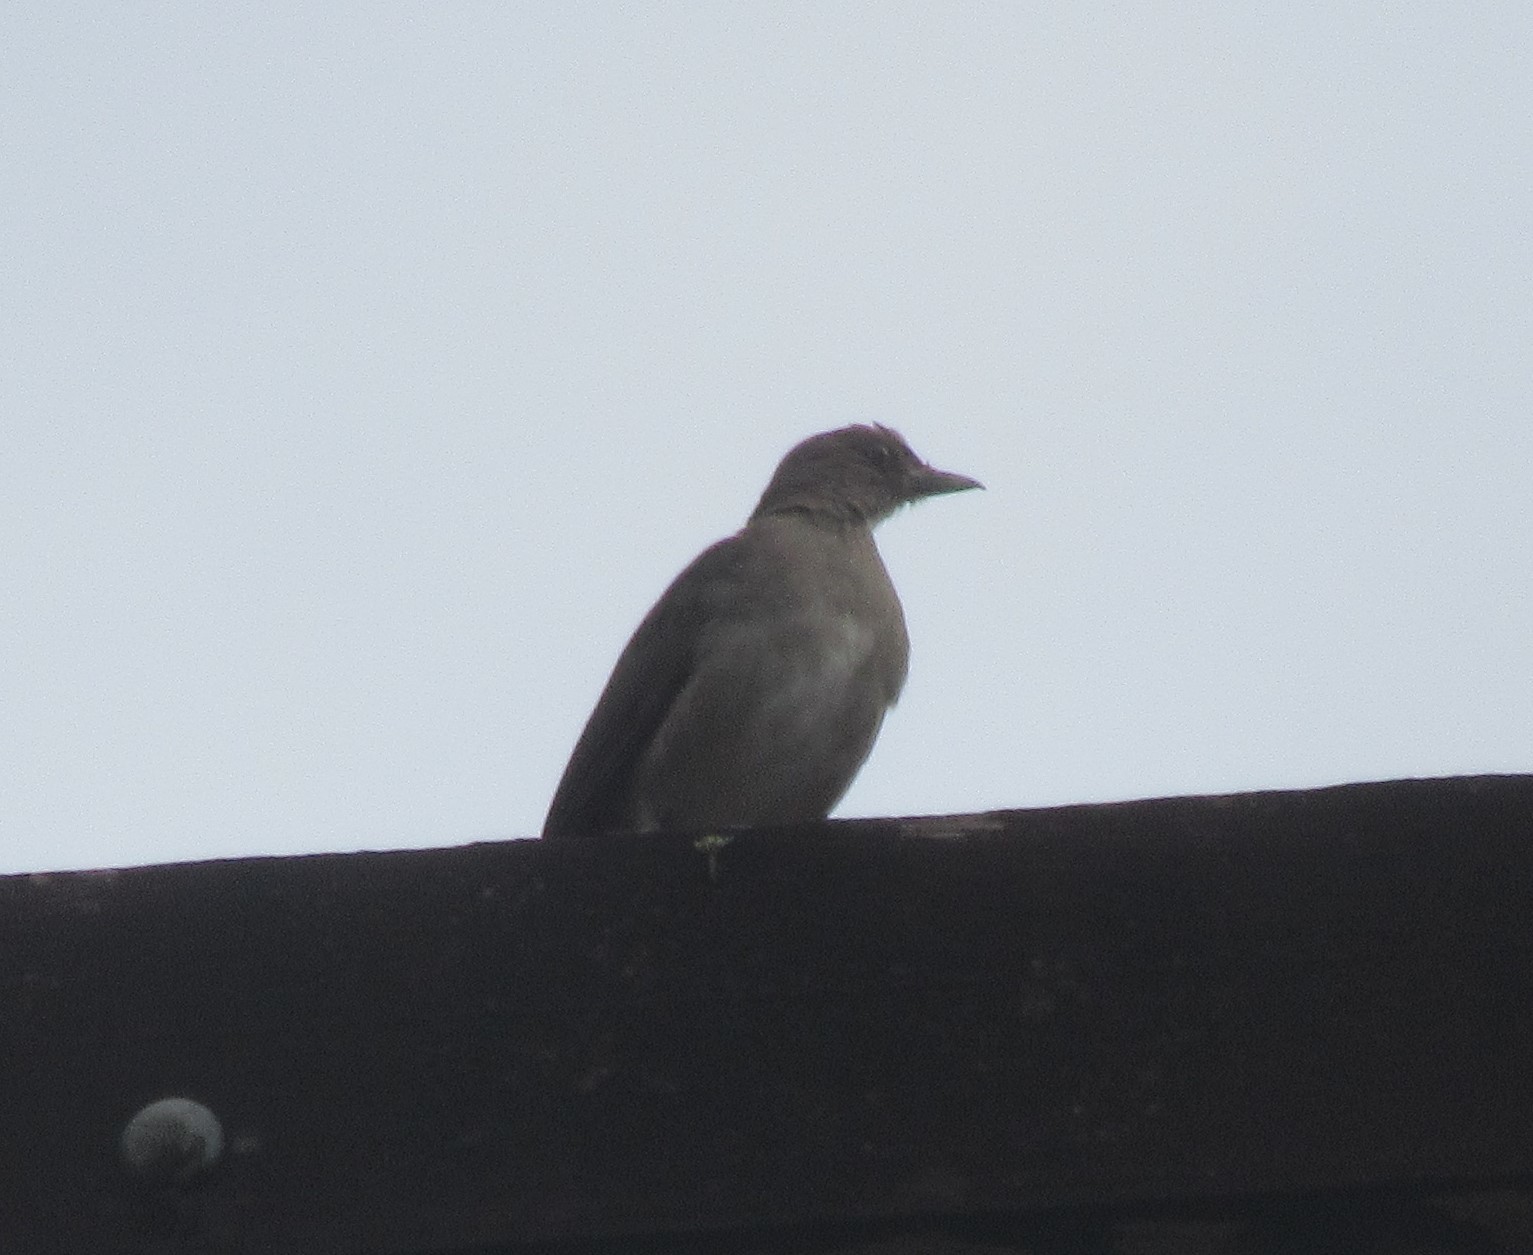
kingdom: Animalia
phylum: Chordata
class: Aves
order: Passeriformes
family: Turdidae
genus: Turdus
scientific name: Turdus ignobilis
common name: Black-billed thrush
